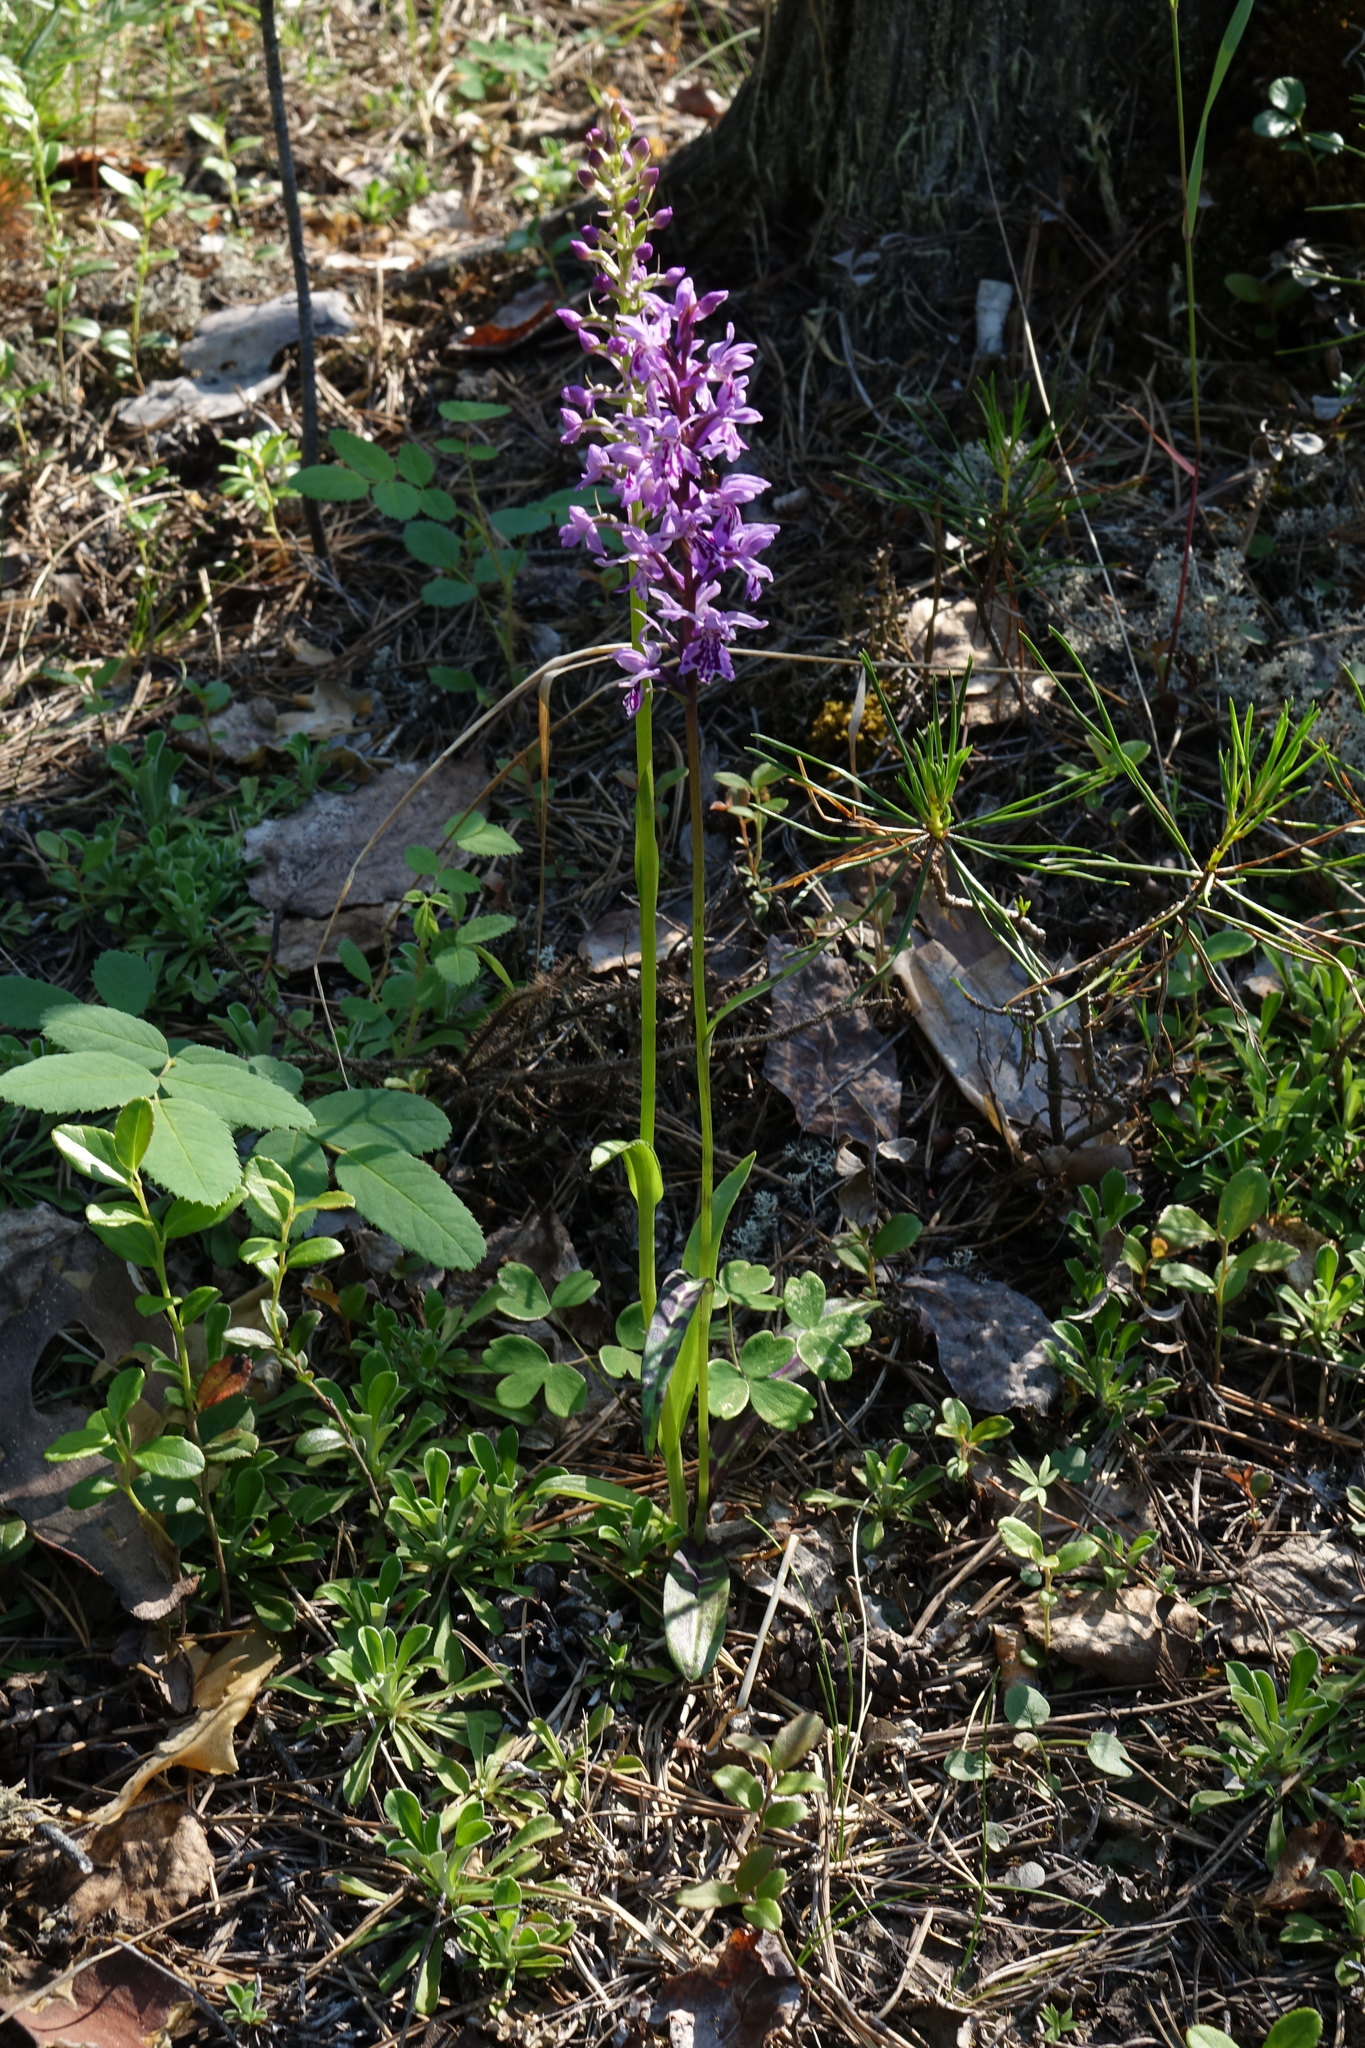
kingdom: Plantae
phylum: Tracheophyta
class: Liliopsida
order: Asparagales
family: Orchidaceae
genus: Gymnadenia
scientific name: Gymnadenia conopsea
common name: Fragrant orchid
